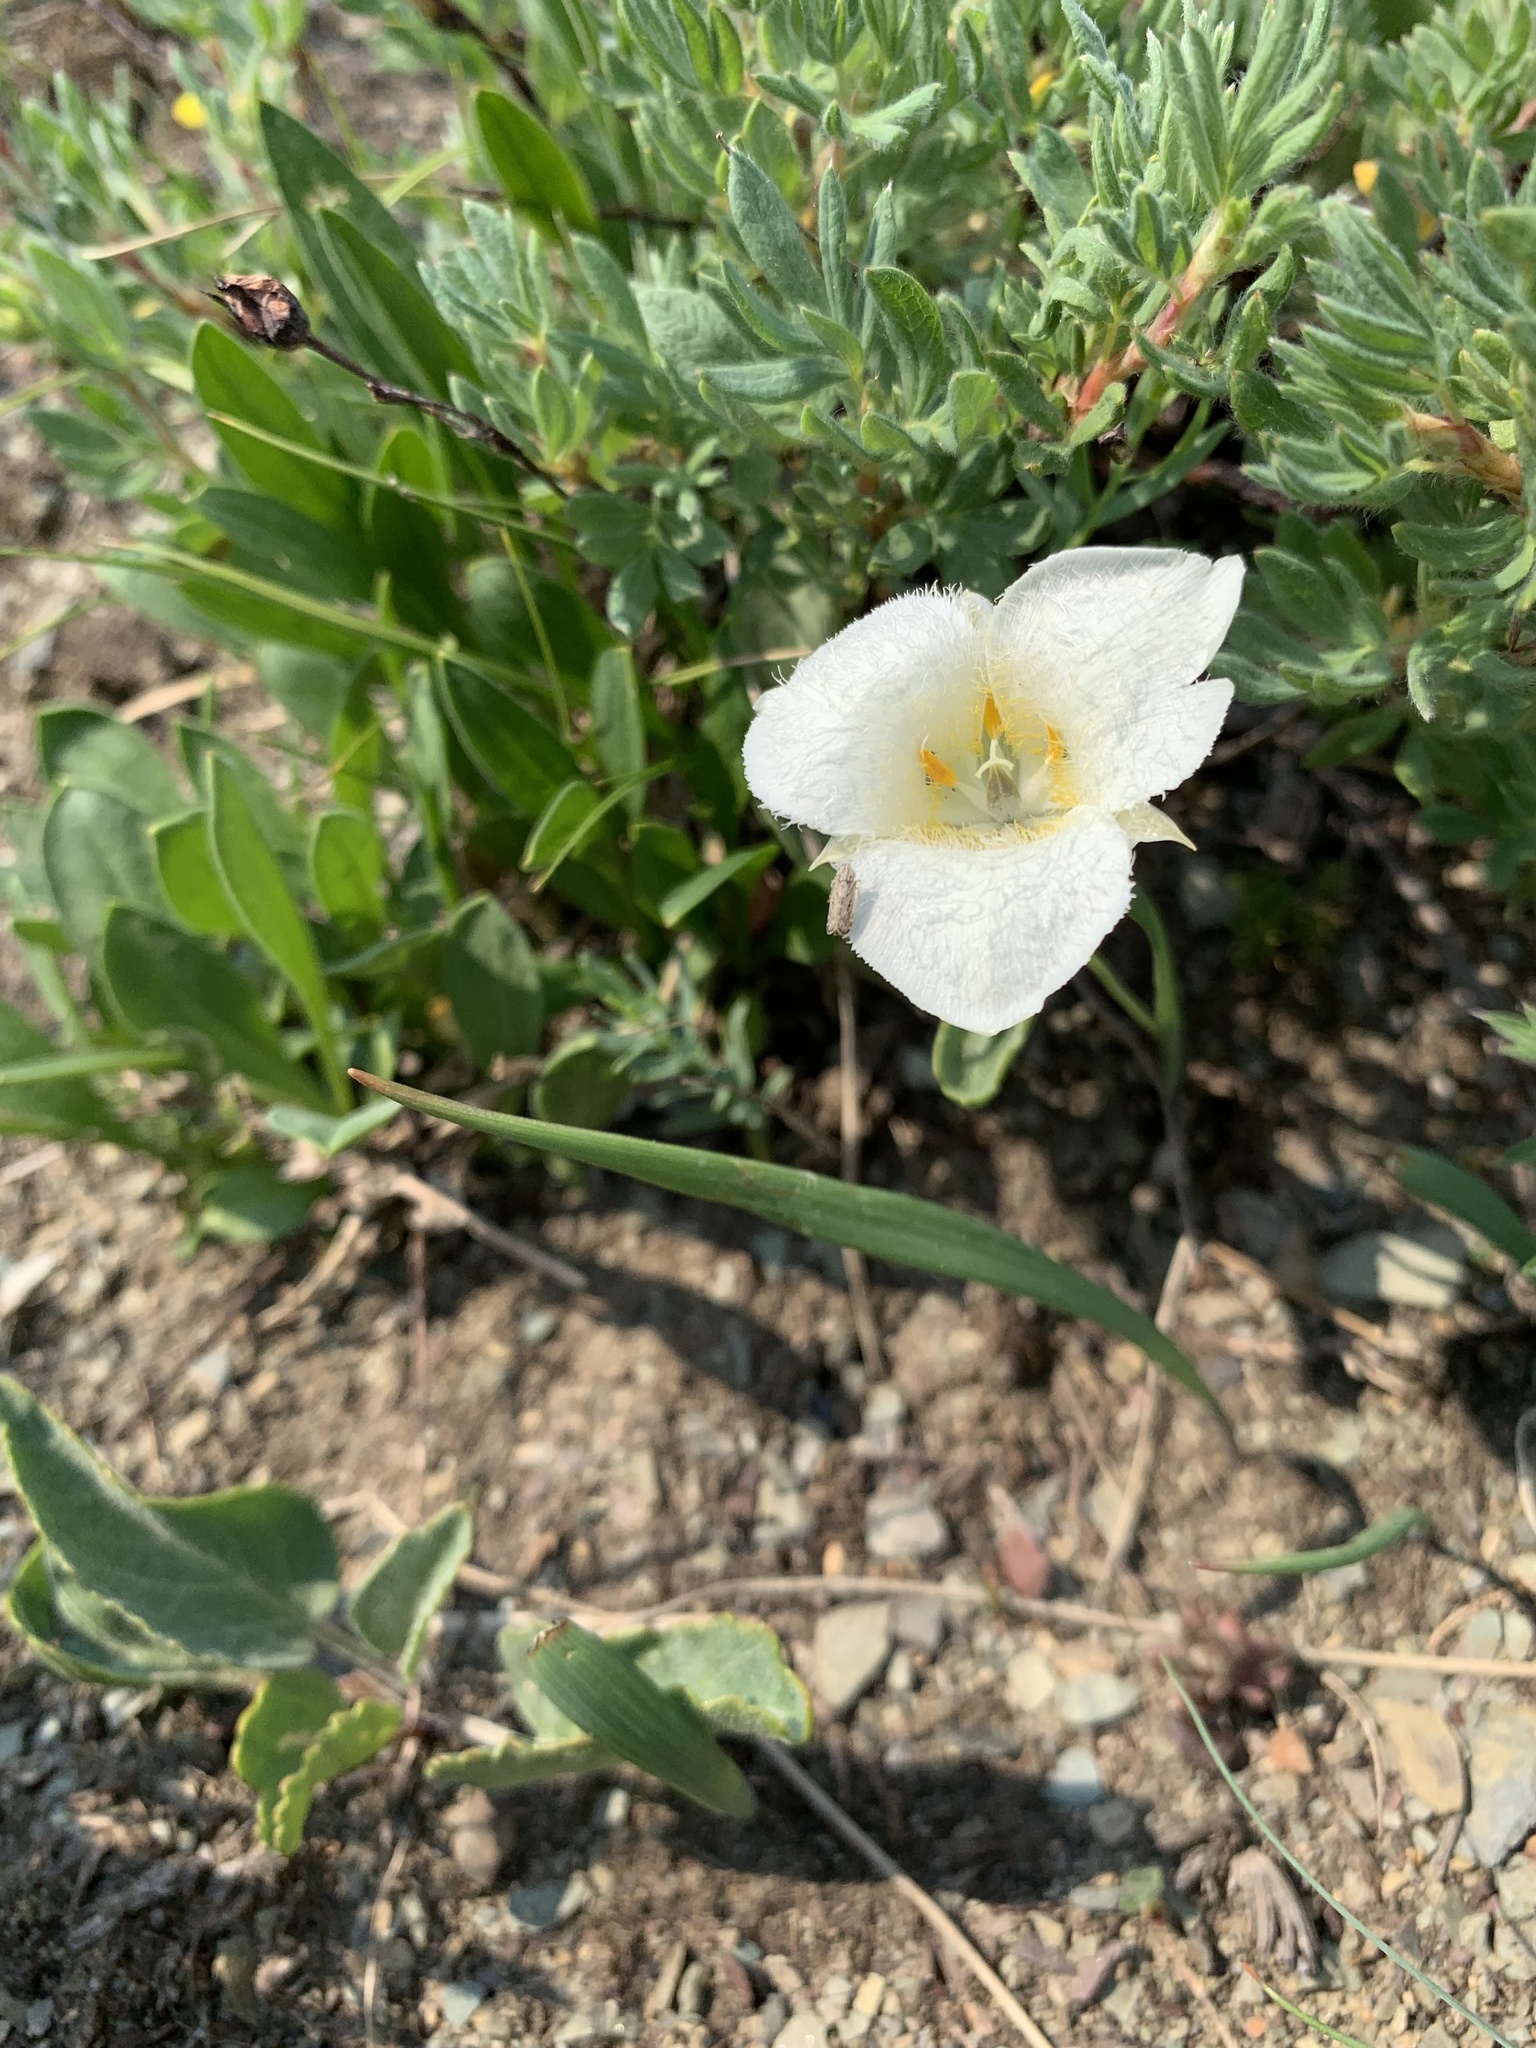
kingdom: Plantae
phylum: Tracheophyta
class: Liliopsida
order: Liliales
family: Liliaceae
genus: Calochortus
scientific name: Calochortus apiculatus
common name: Baker's mariposa lily
